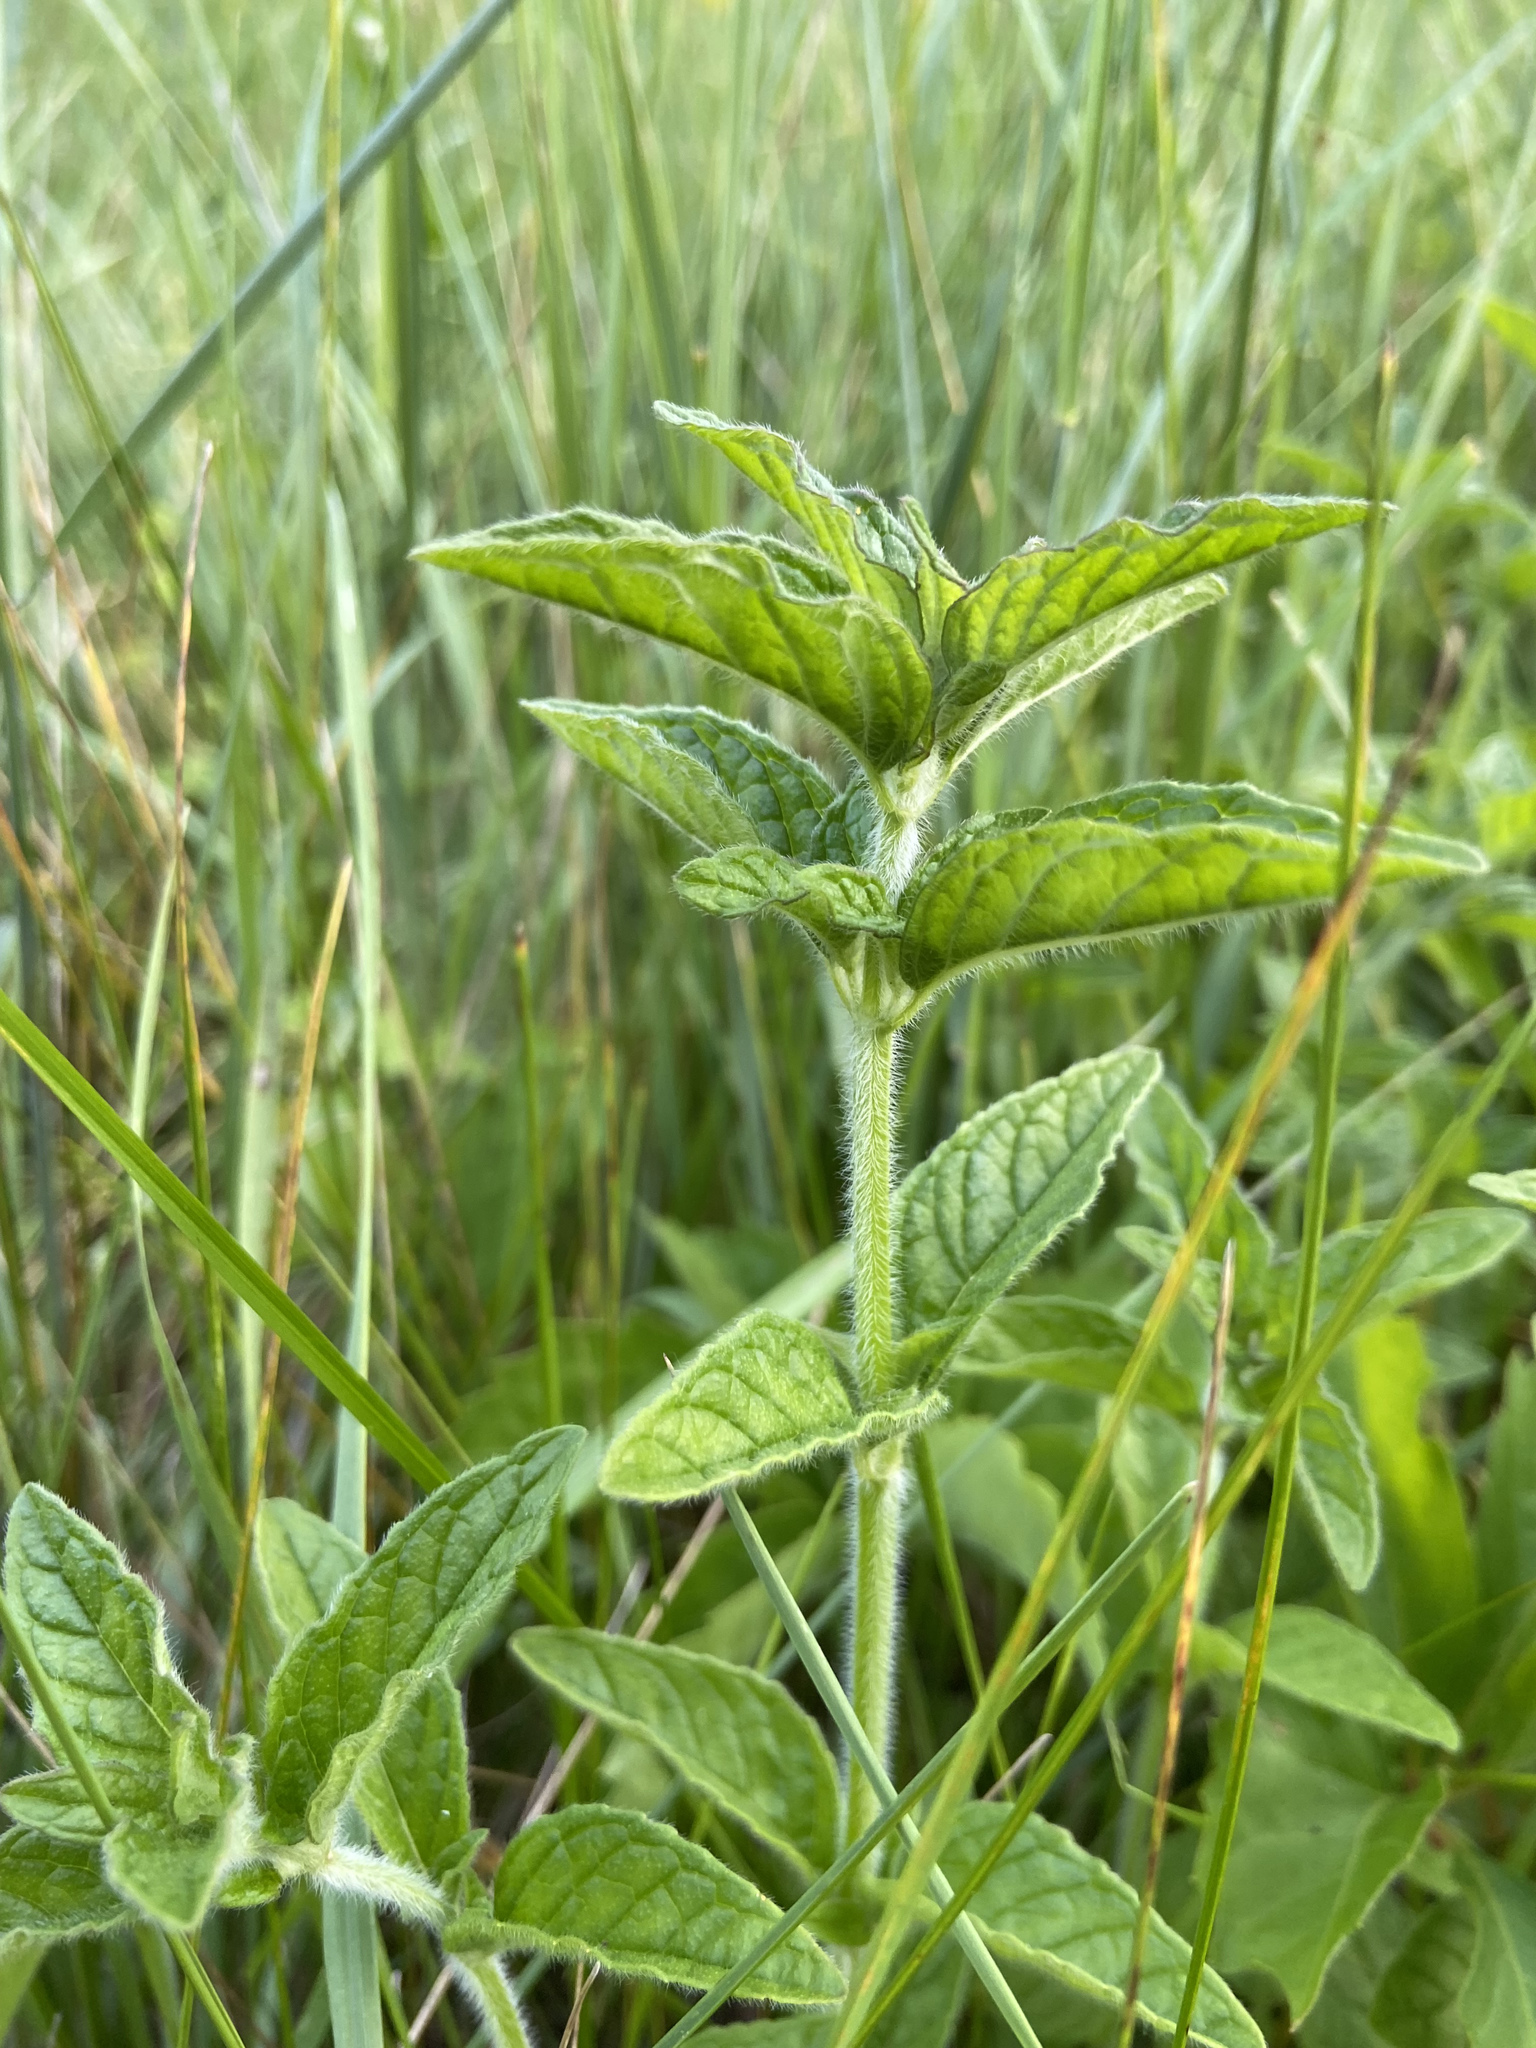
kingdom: Plantae
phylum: Tracheophyta
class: Magnoliopsida
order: Lamiales
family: Lamiaceae
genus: Clinopodium
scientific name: Clinopodium vulgare
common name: Wild basil
